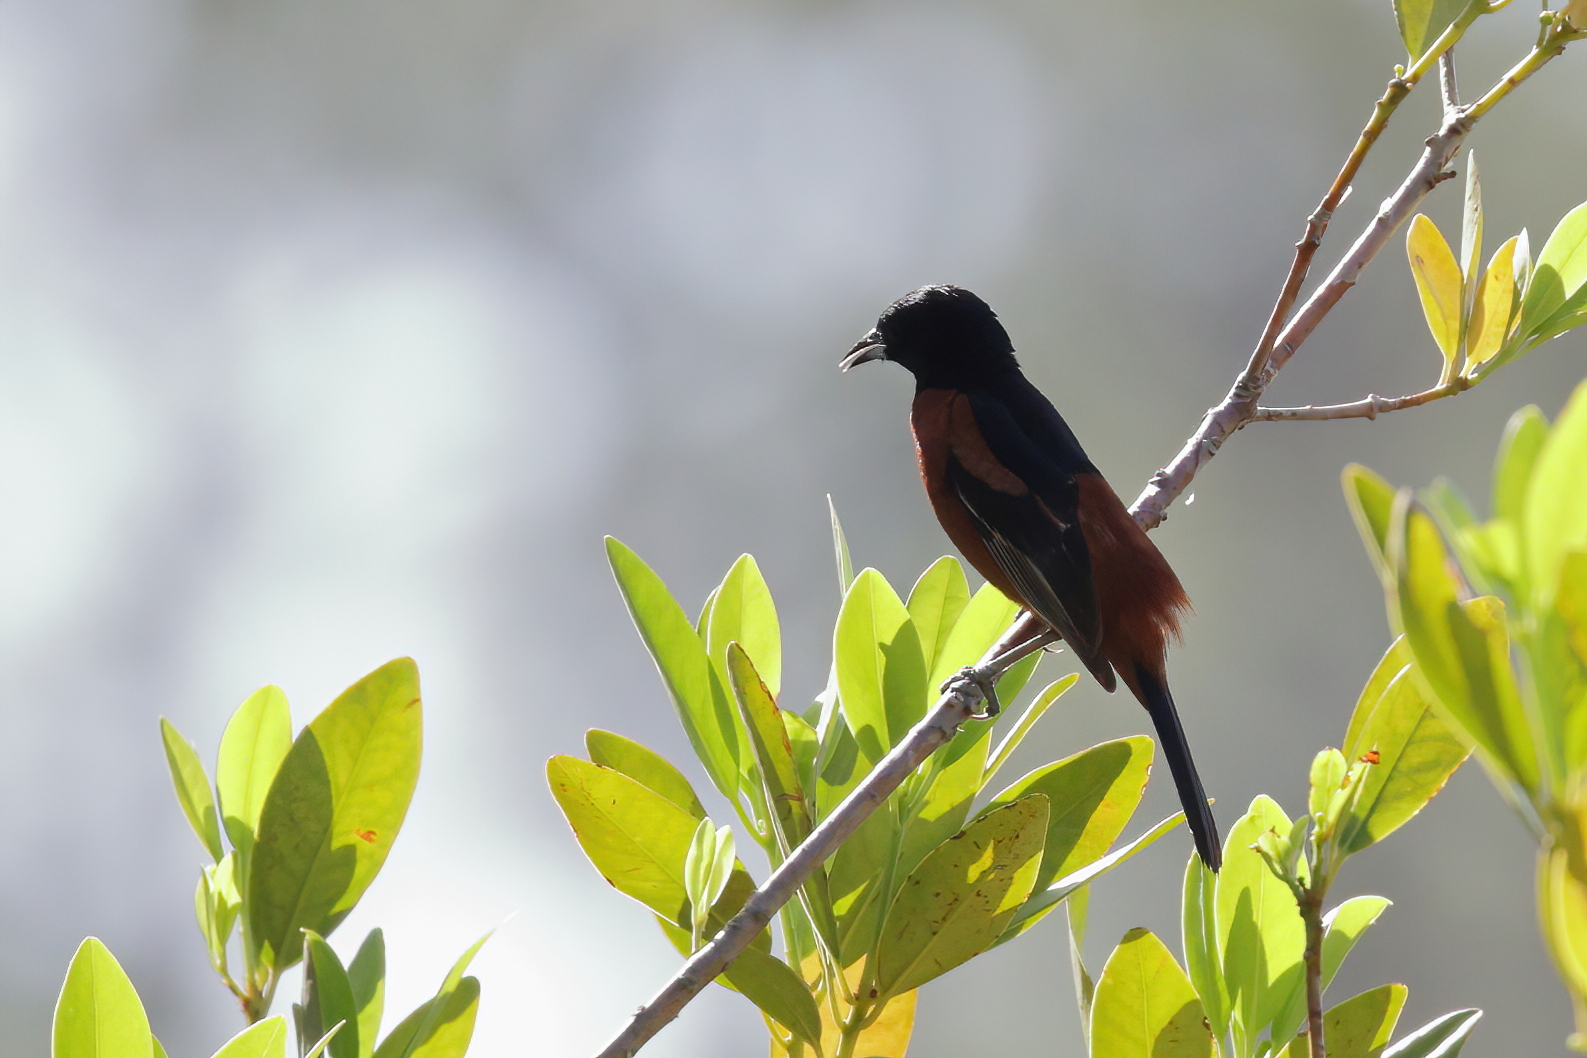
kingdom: Animalia
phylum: Chordata
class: Aves
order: Passeriformes
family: Icteridae
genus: Icterus
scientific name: Icterus spurius
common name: Orchard oriole
